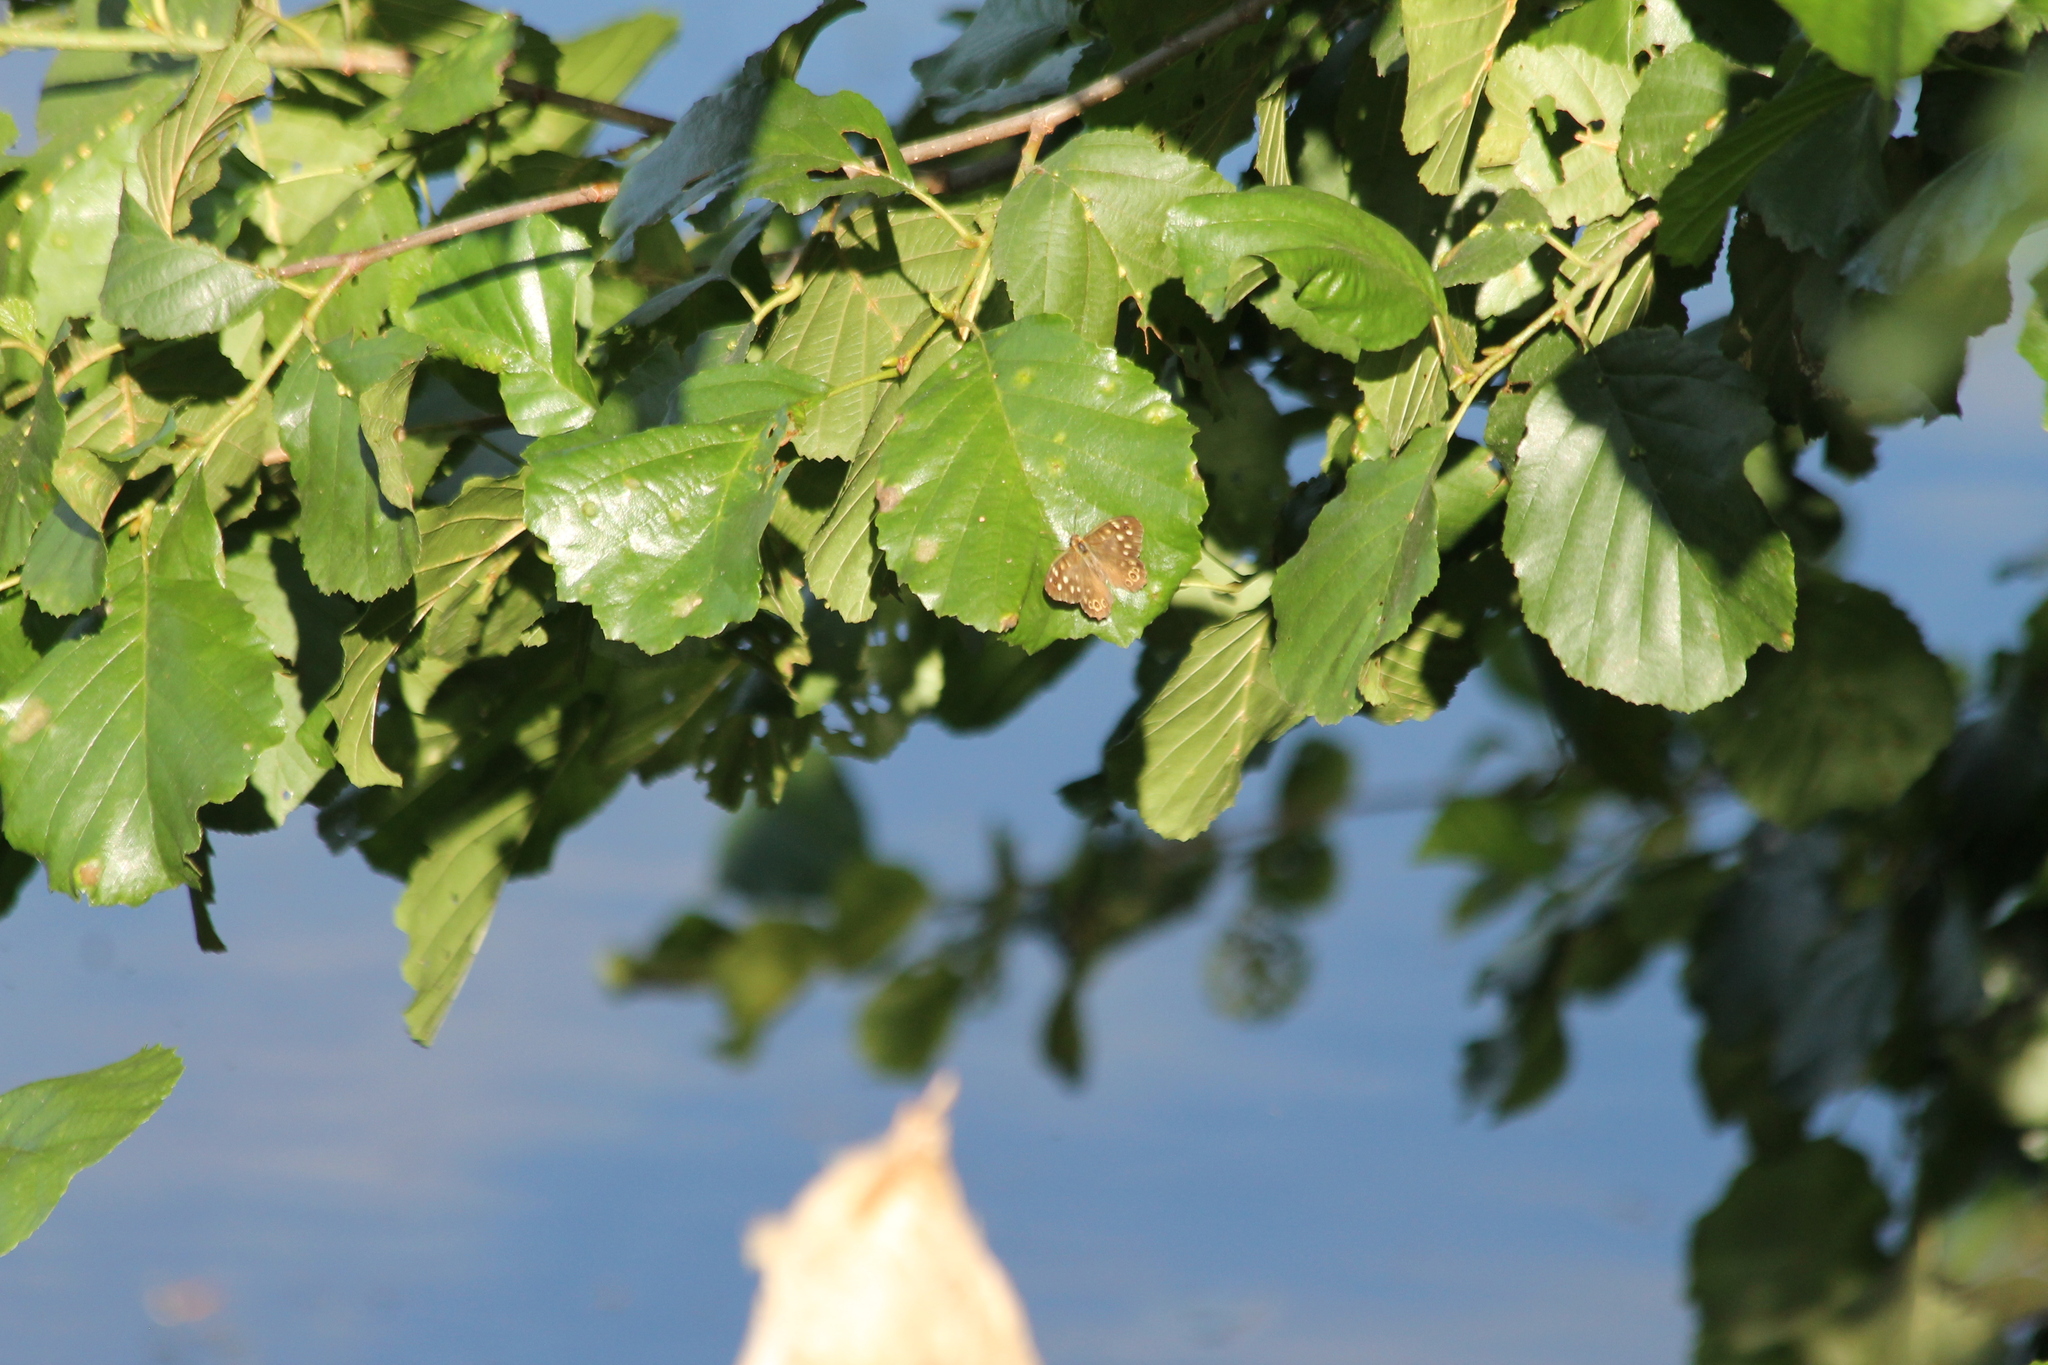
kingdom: Animalia
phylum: Arthropoda
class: Insecta
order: Lepidoptera
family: Nymphalidae
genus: Pararge
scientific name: Pararge aegeria
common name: Speckled wood
